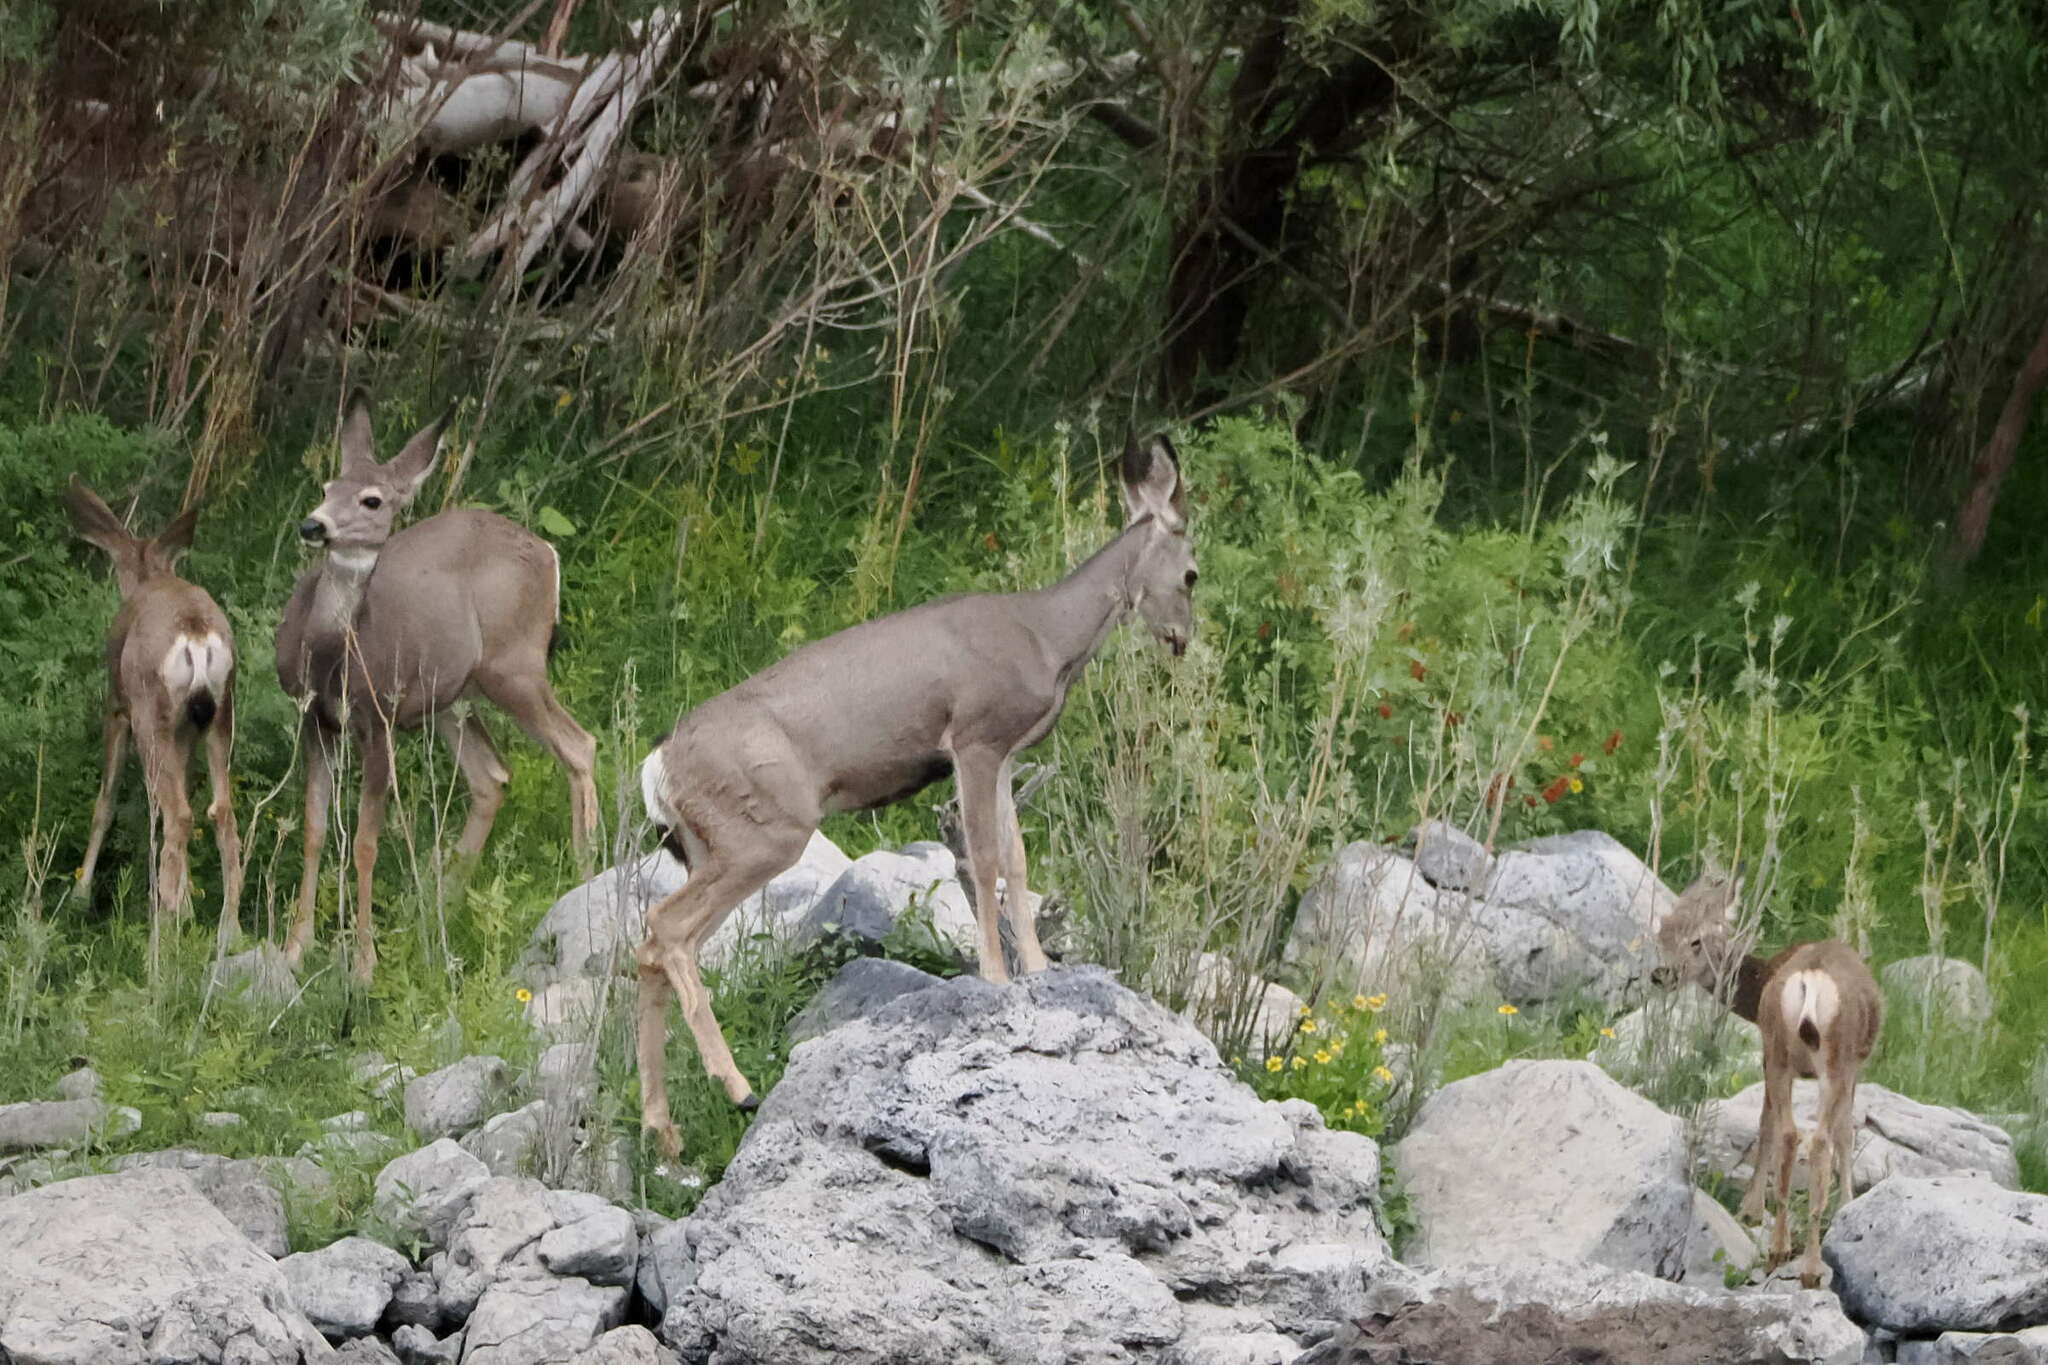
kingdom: Animalia
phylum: Chordata
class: Mammalia
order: Artiodactyla
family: Cervidae
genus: Odocoileus
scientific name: Odocoileus hemionus
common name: Mule deer
